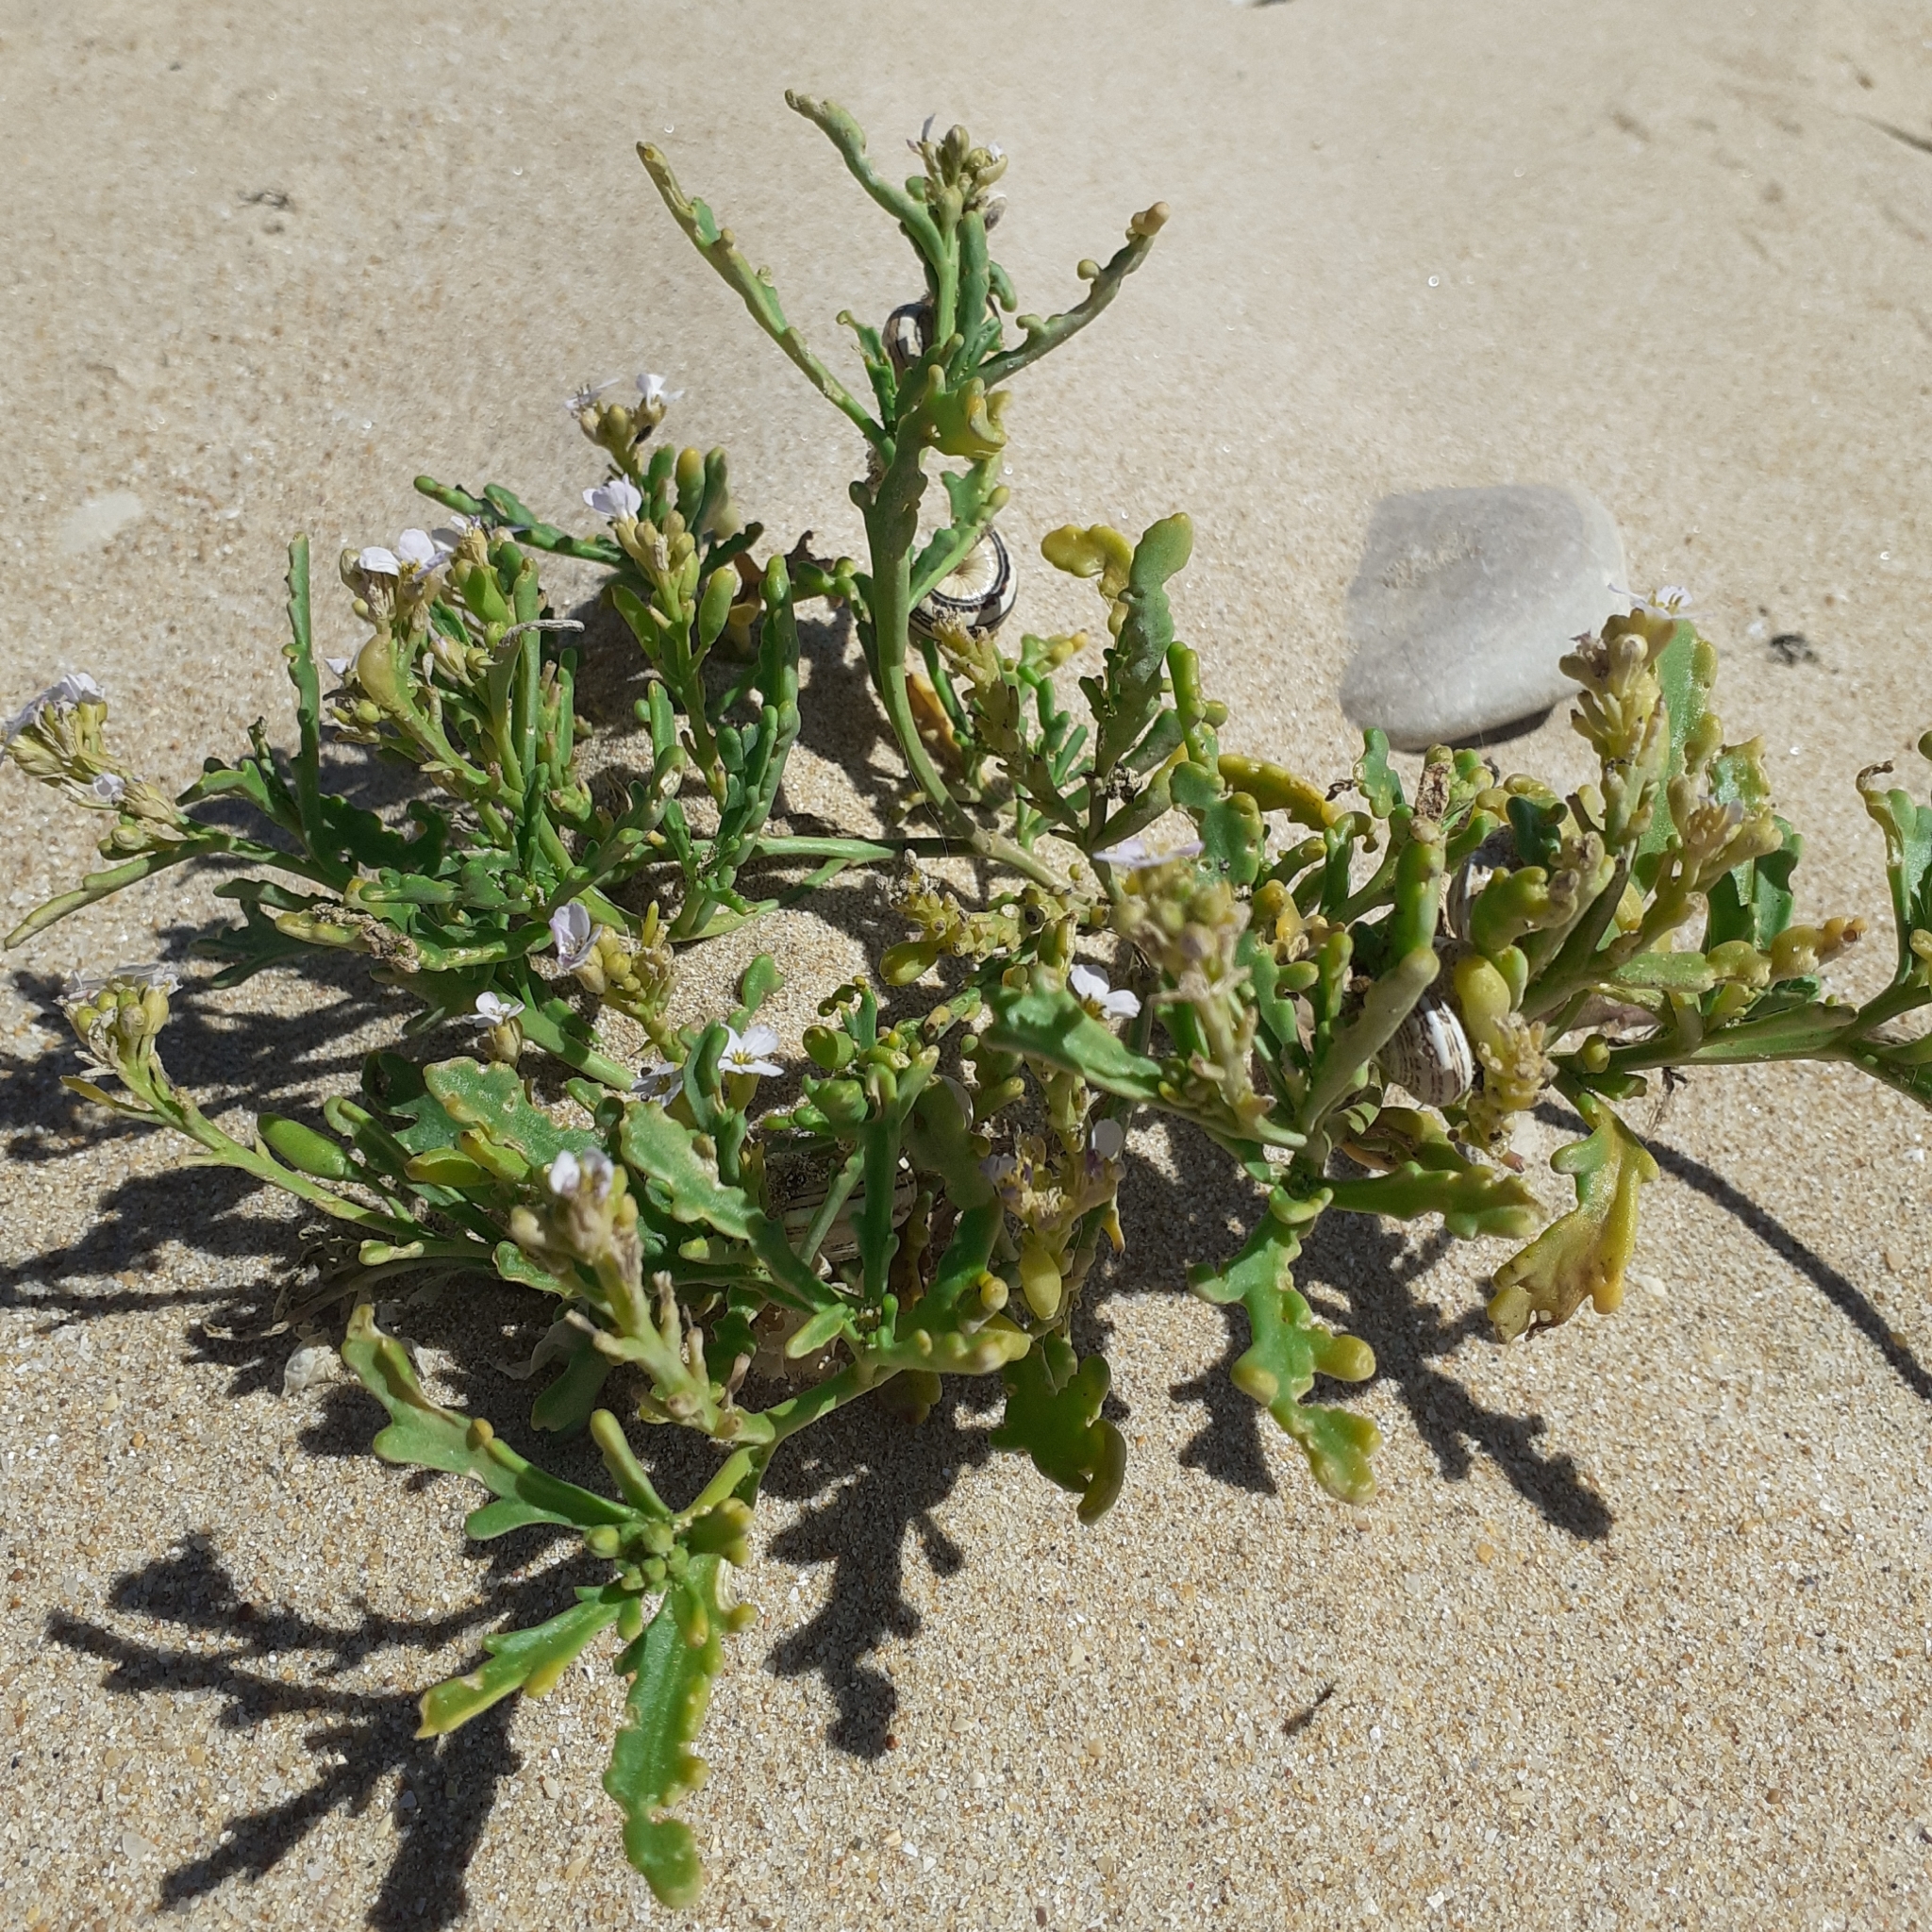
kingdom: Plantae
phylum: Tracheophyta
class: Magnoliopsida
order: Brassicales
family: Brassicaceae
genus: Cakile
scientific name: Cakile maritima
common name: Sea rocket
